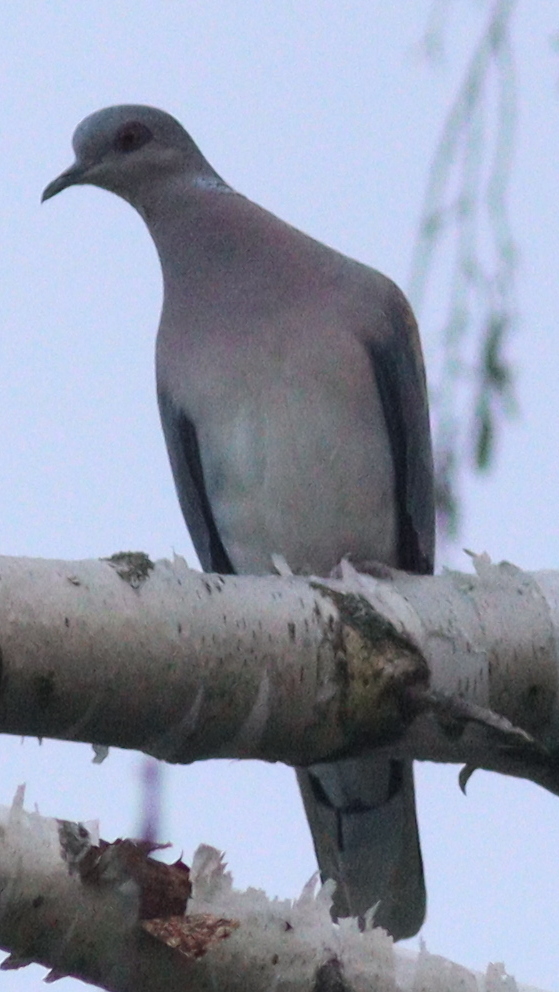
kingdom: Animalia
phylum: Chordata
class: Aves
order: Columbiformes
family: Columbidae
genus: Streptopelia
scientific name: Streptopelia turtur
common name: European turtle dove
